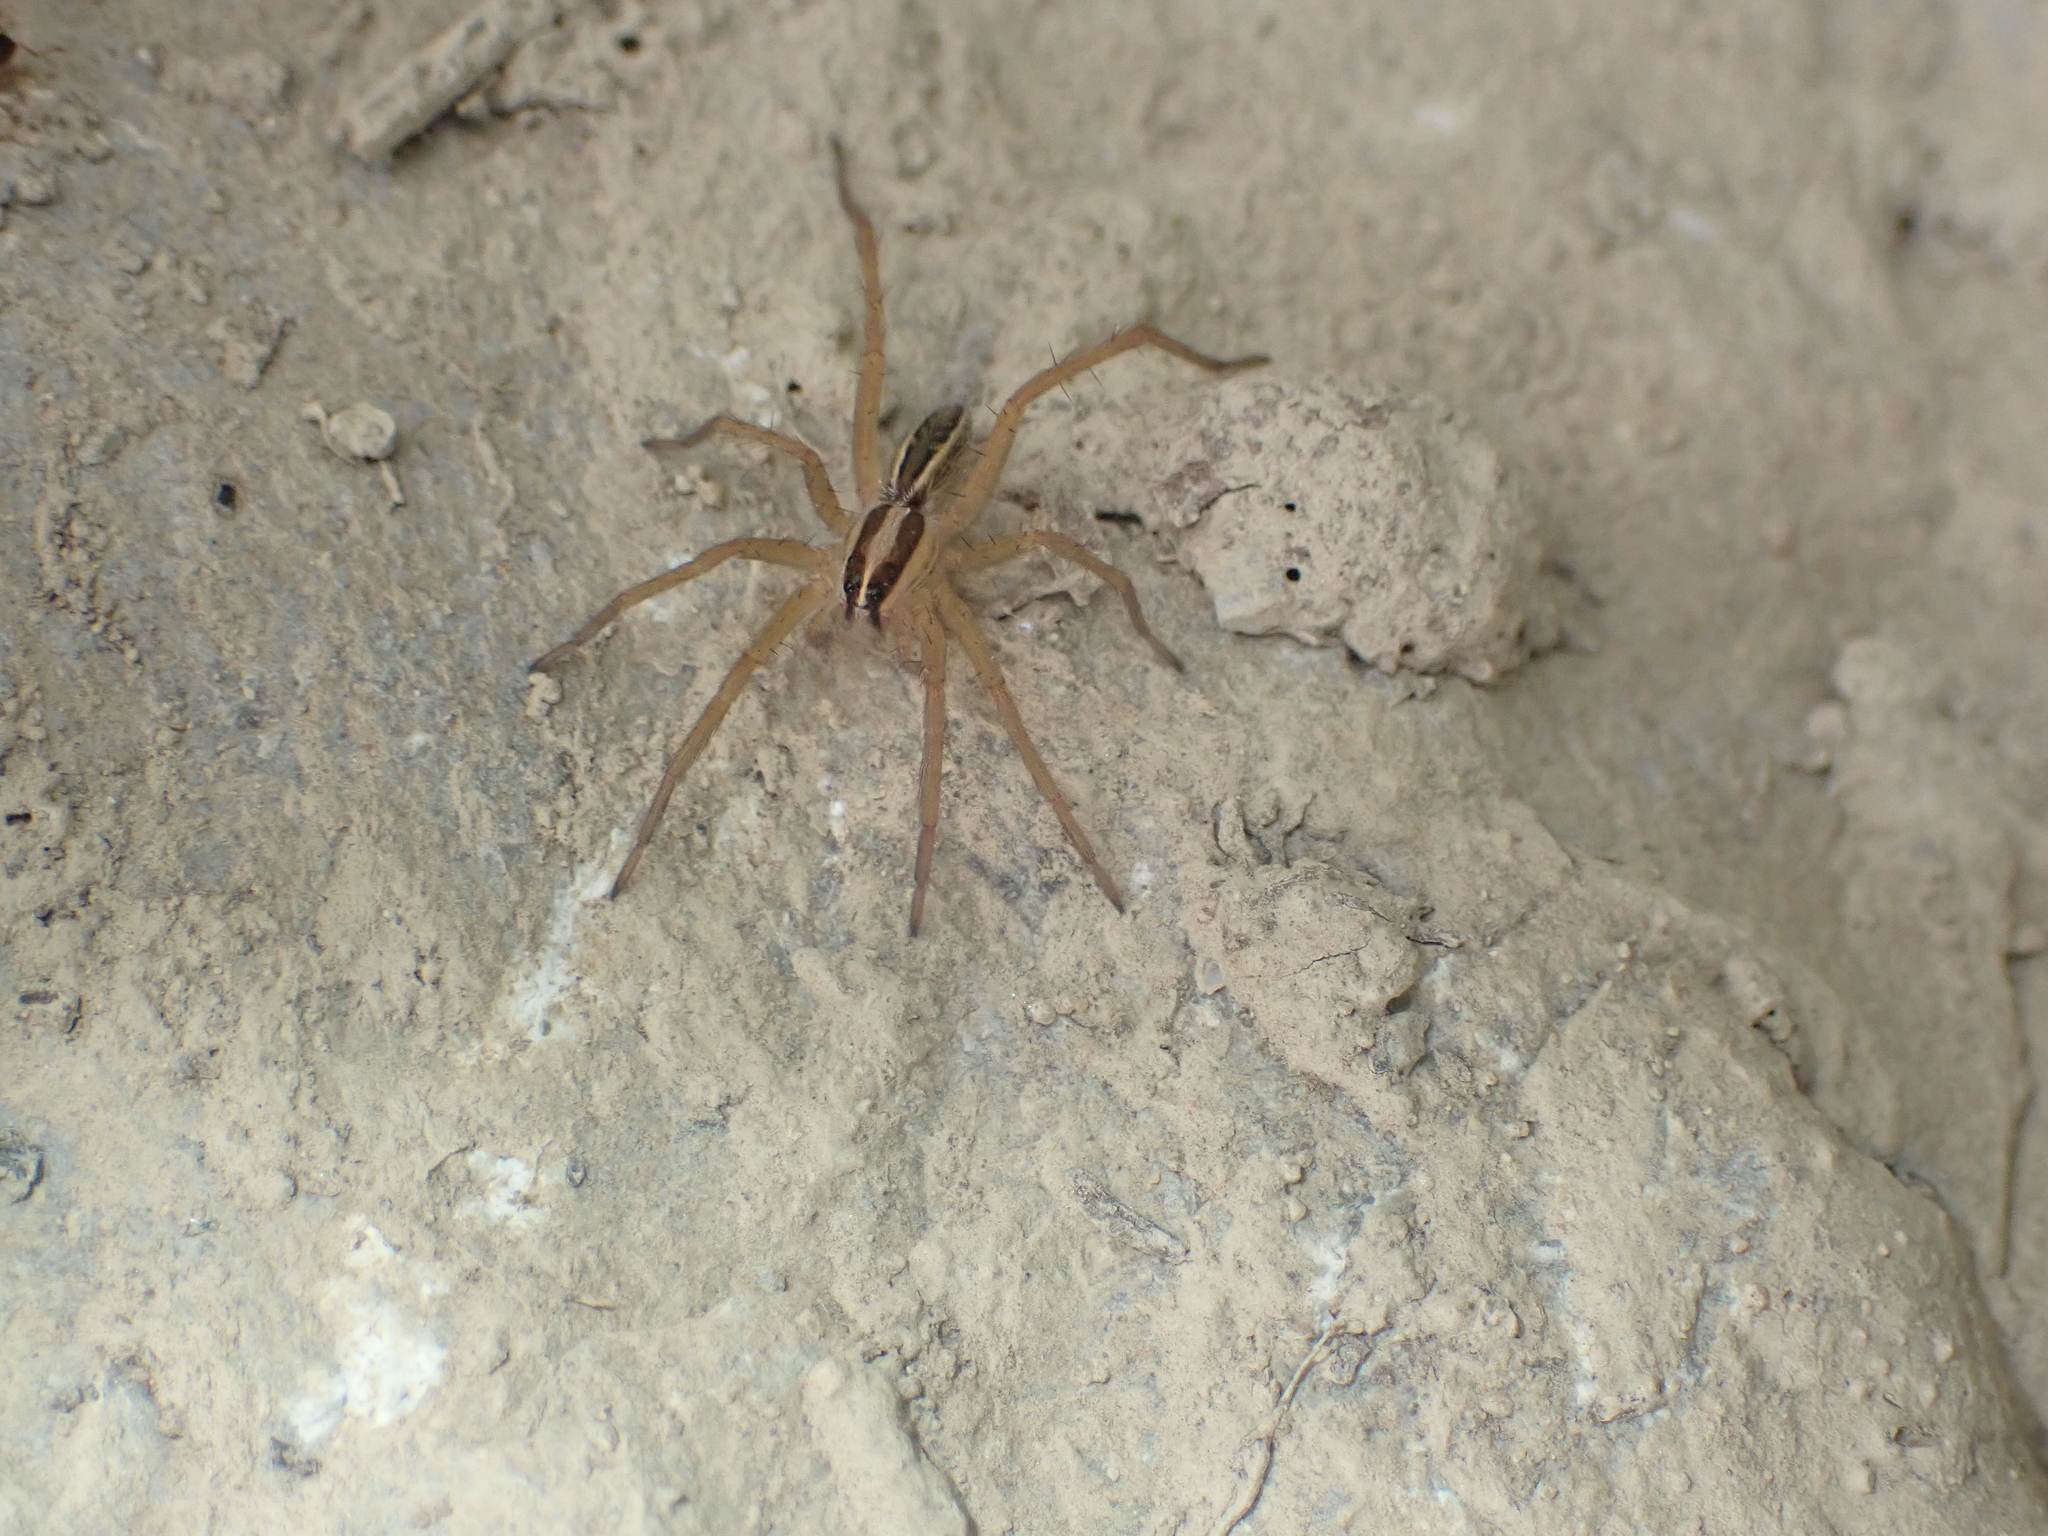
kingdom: Animalia
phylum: Arthropoda
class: Arachnida
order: Araneae
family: Lycosidae
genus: Rabidosa
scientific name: Rabidosa rabida
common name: Rabid wolf spider
